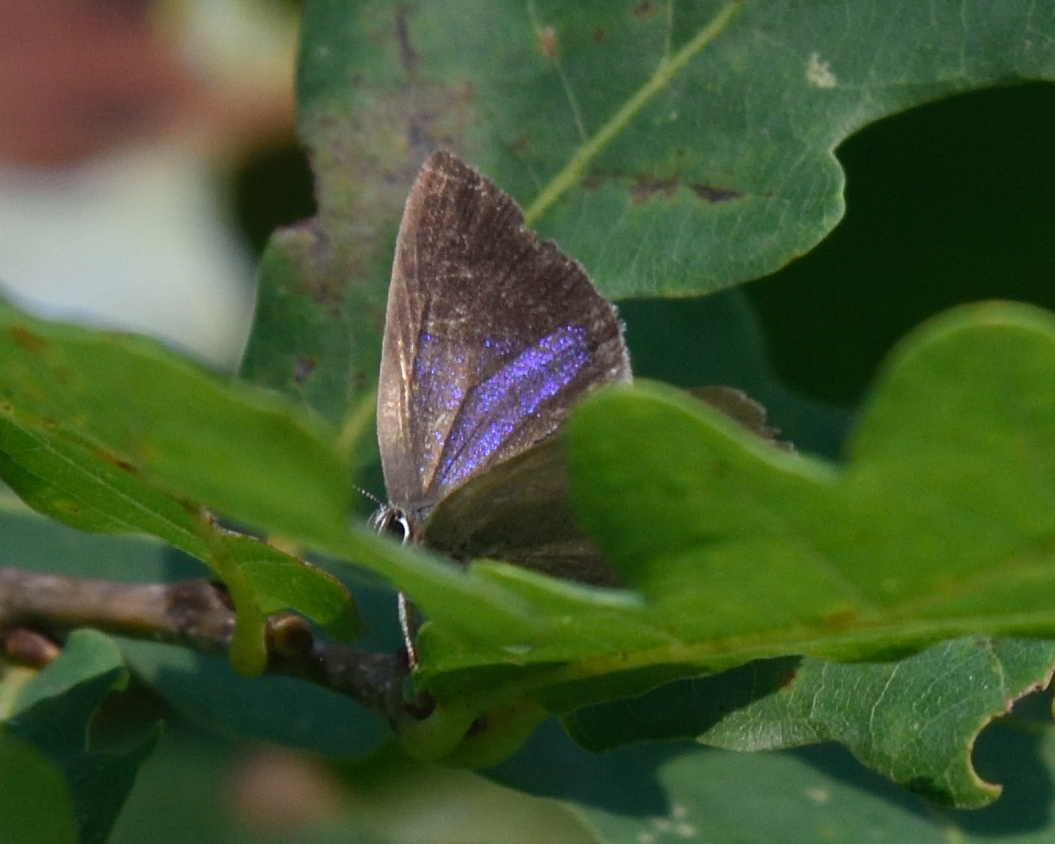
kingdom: Animalia
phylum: Arthropoda
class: Insecta
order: Lepidoptera
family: Lycaenidae
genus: Quercusia
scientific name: Quercusia quercus
